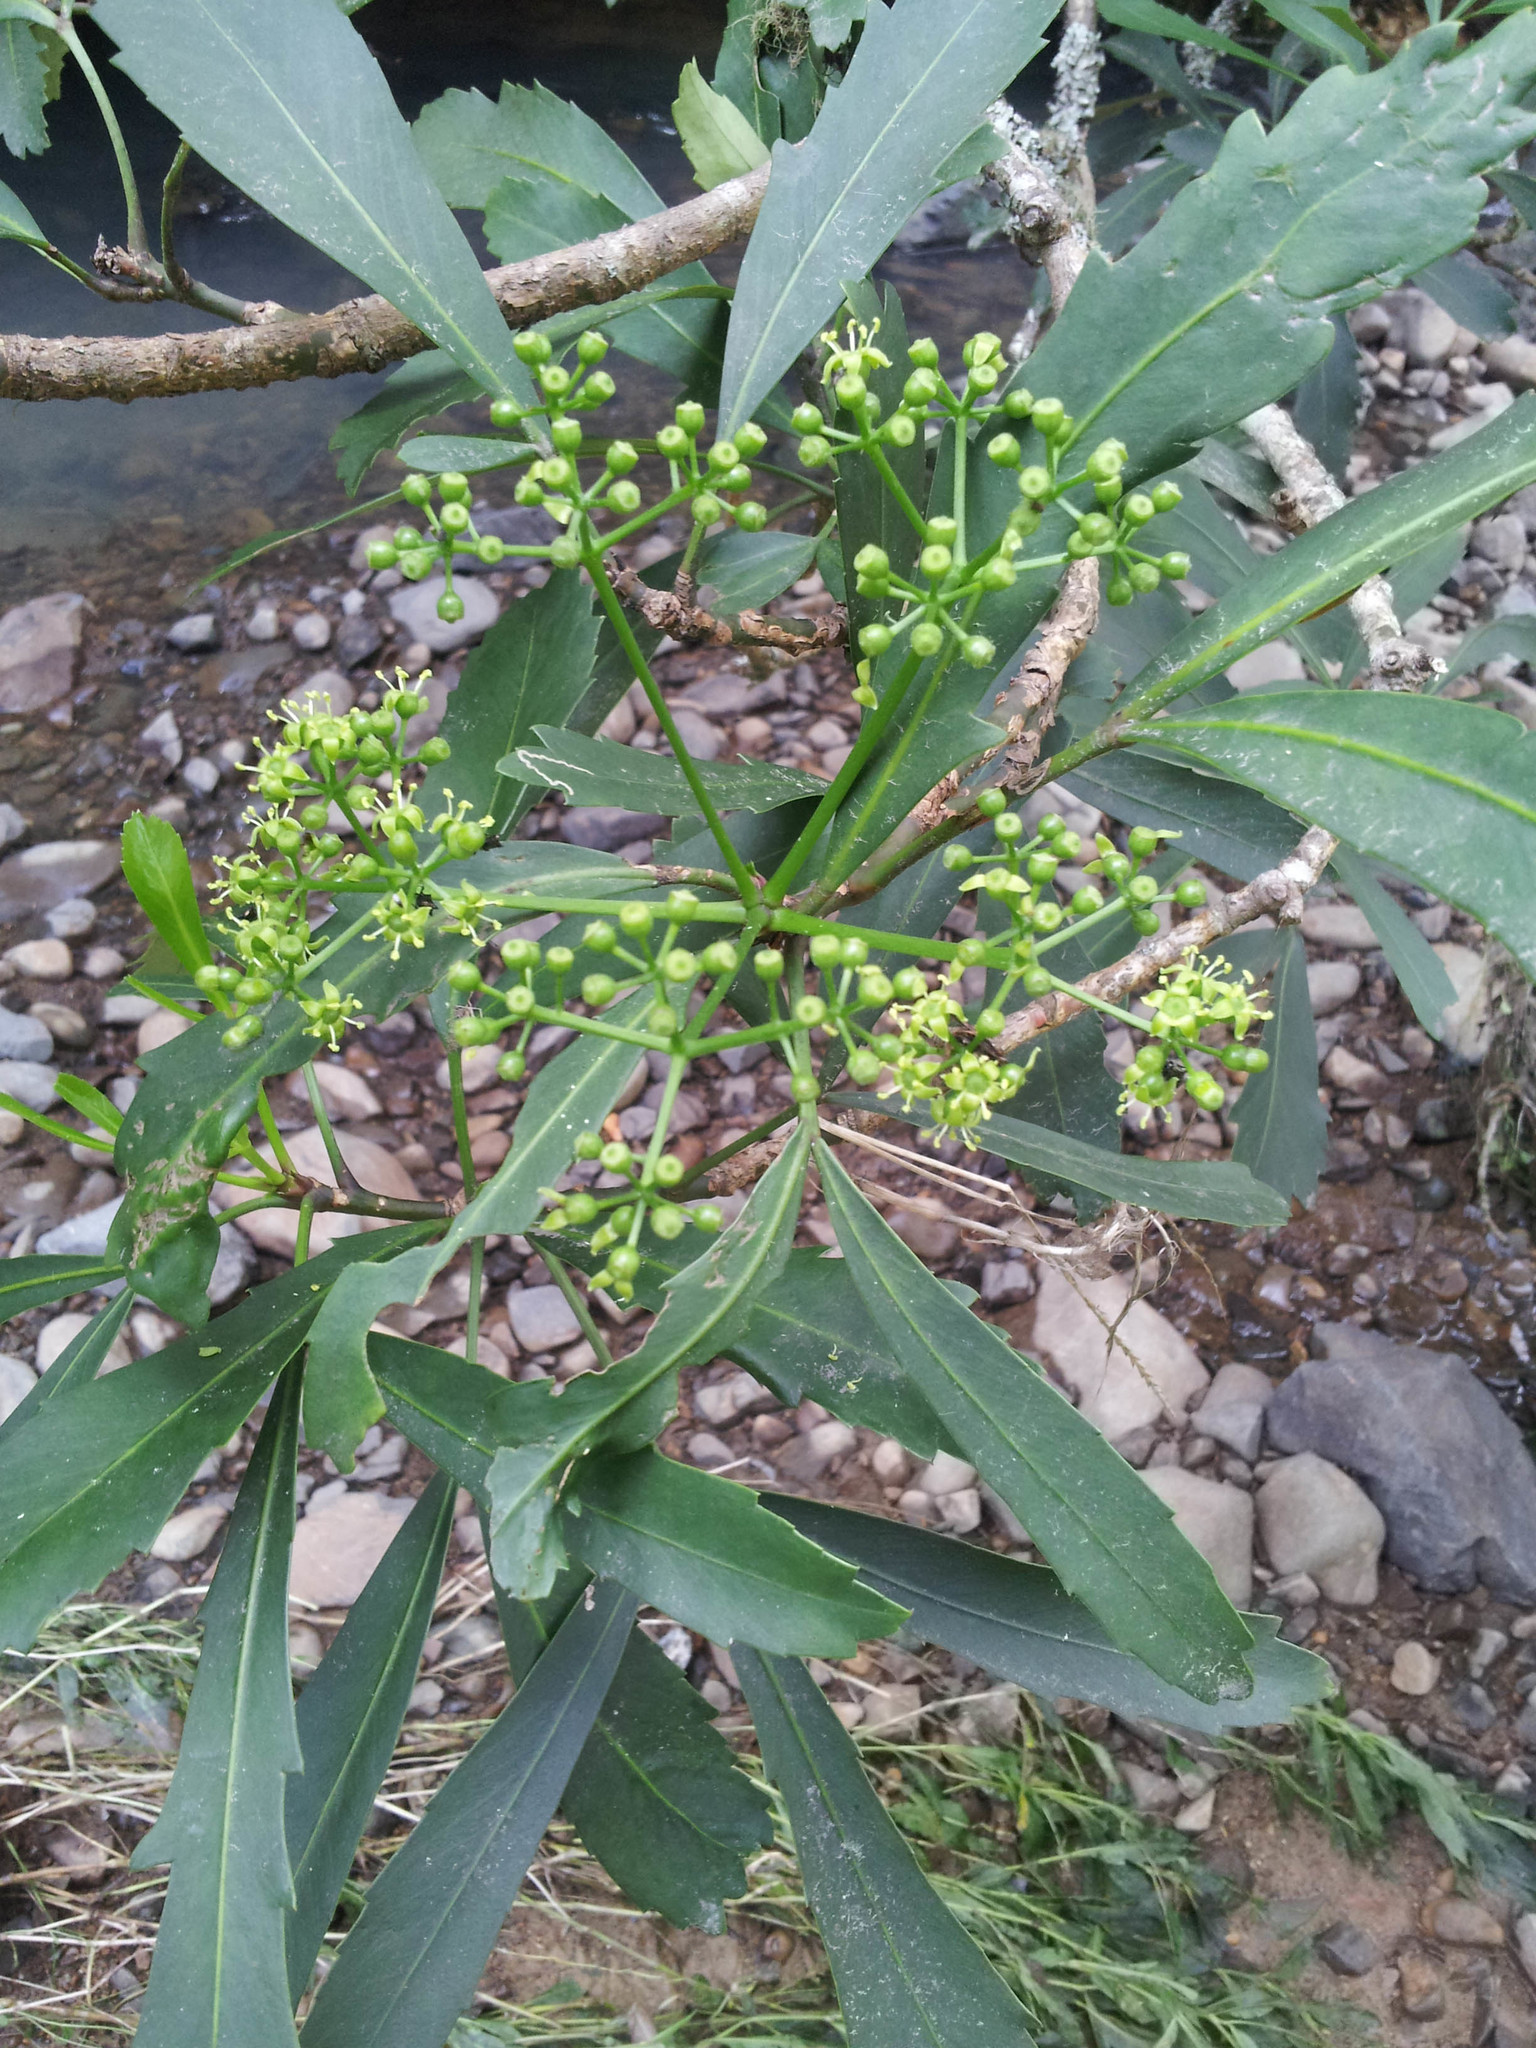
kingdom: Plantae
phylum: Tracheophyta
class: Magnoliopsida
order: Apiales
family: Araliaceae
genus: Pseudopanax
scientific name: Pseudopanax
